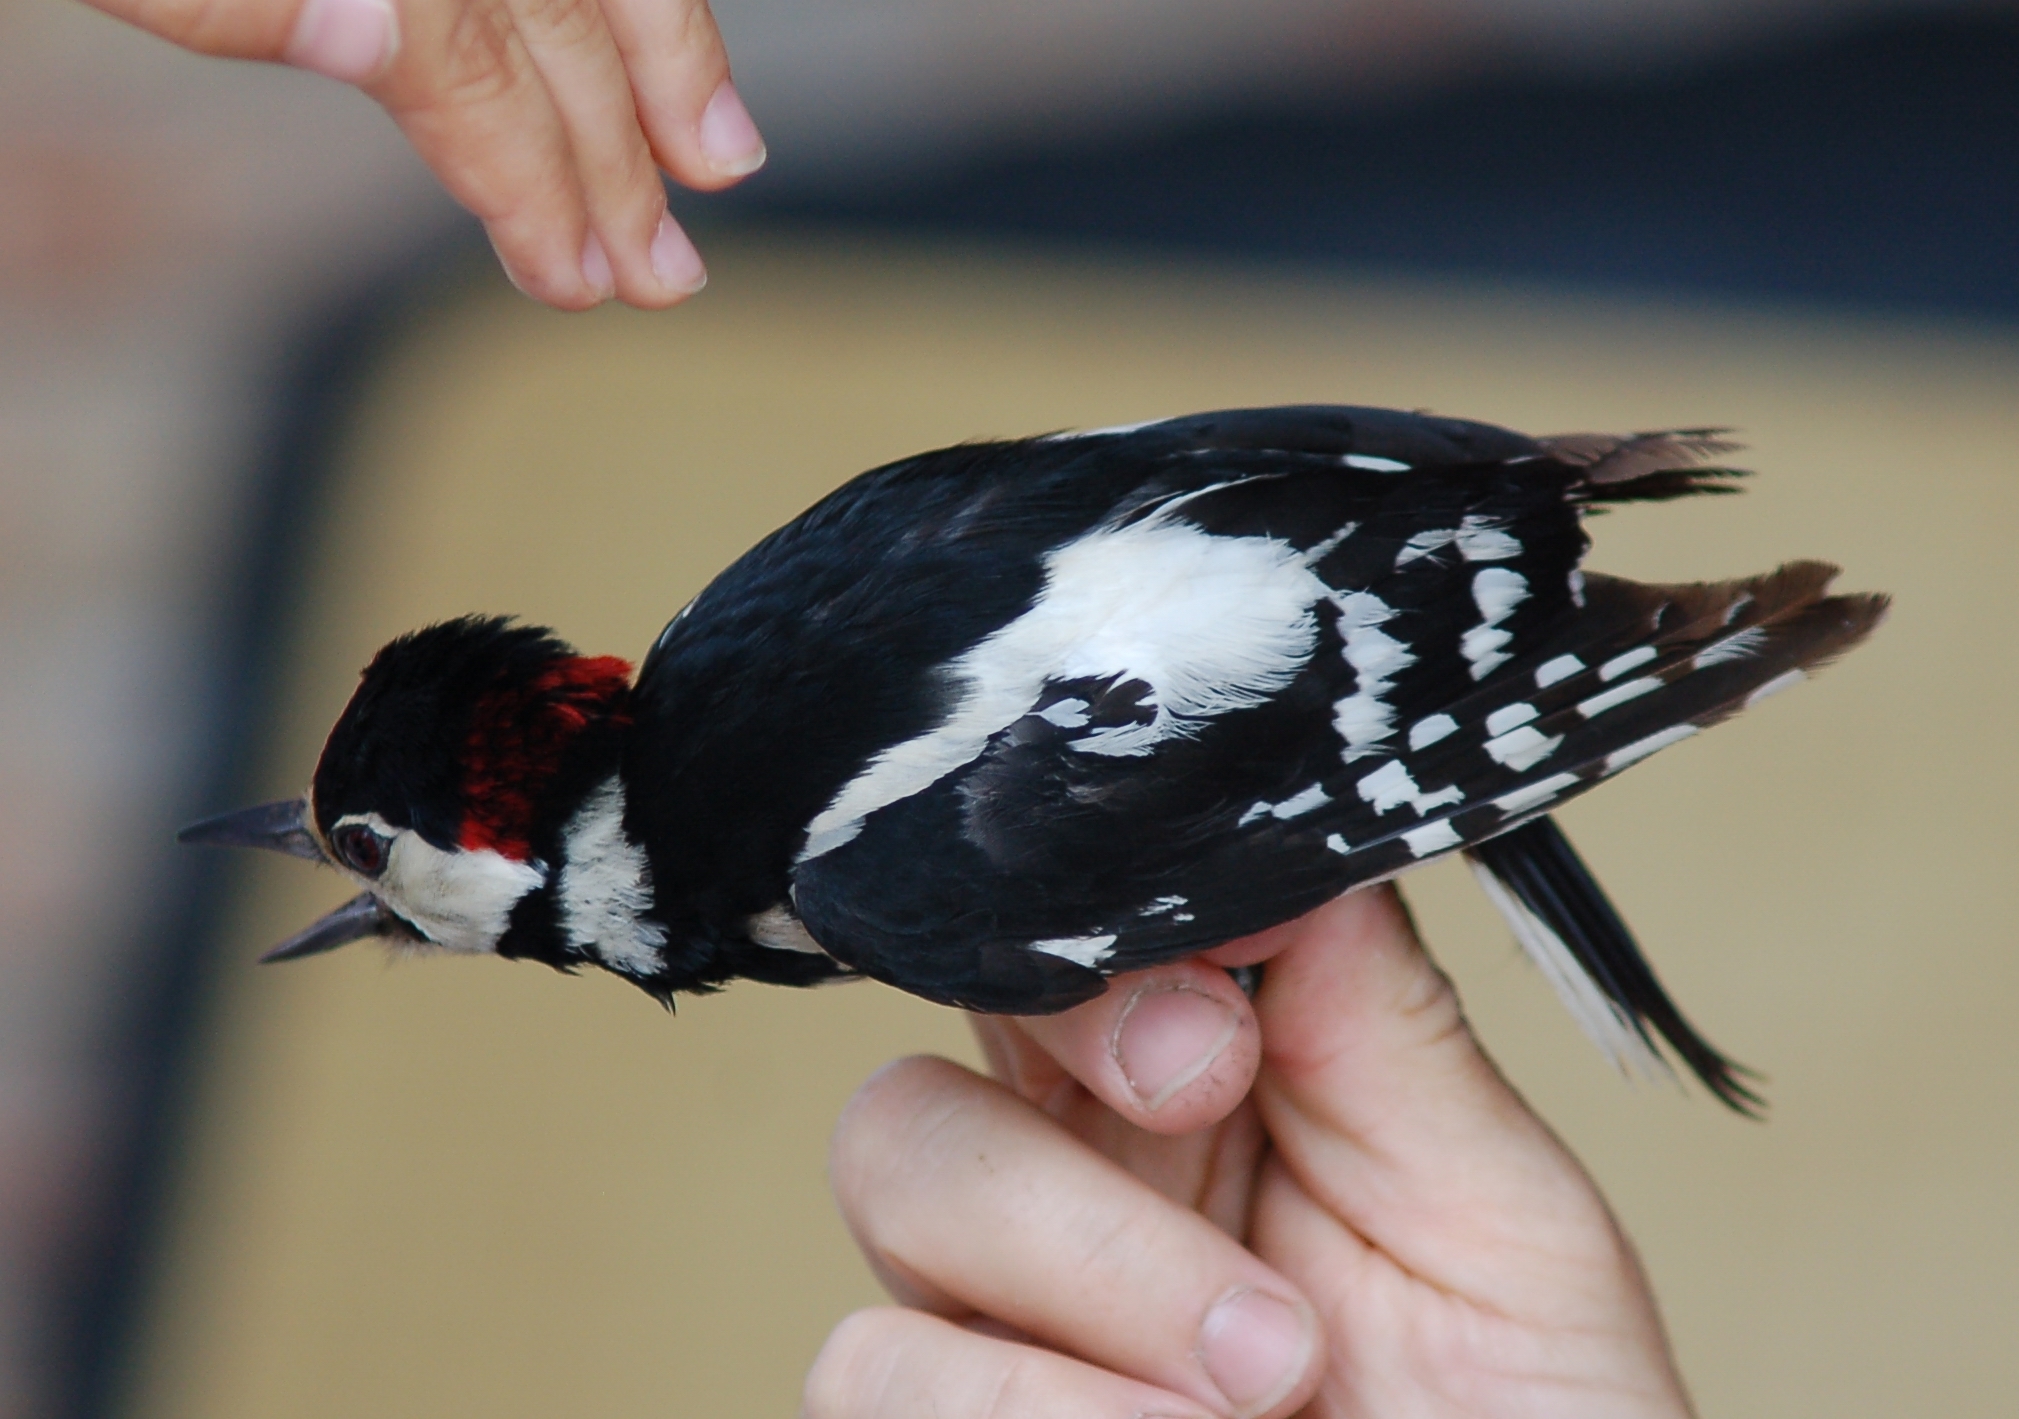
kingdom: Animalia
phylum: Chordata
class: Aves
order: Piciformes
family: Picidae
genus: Dendrocopos
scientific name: Dendrocopos major
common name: Great spotted woodpecker
